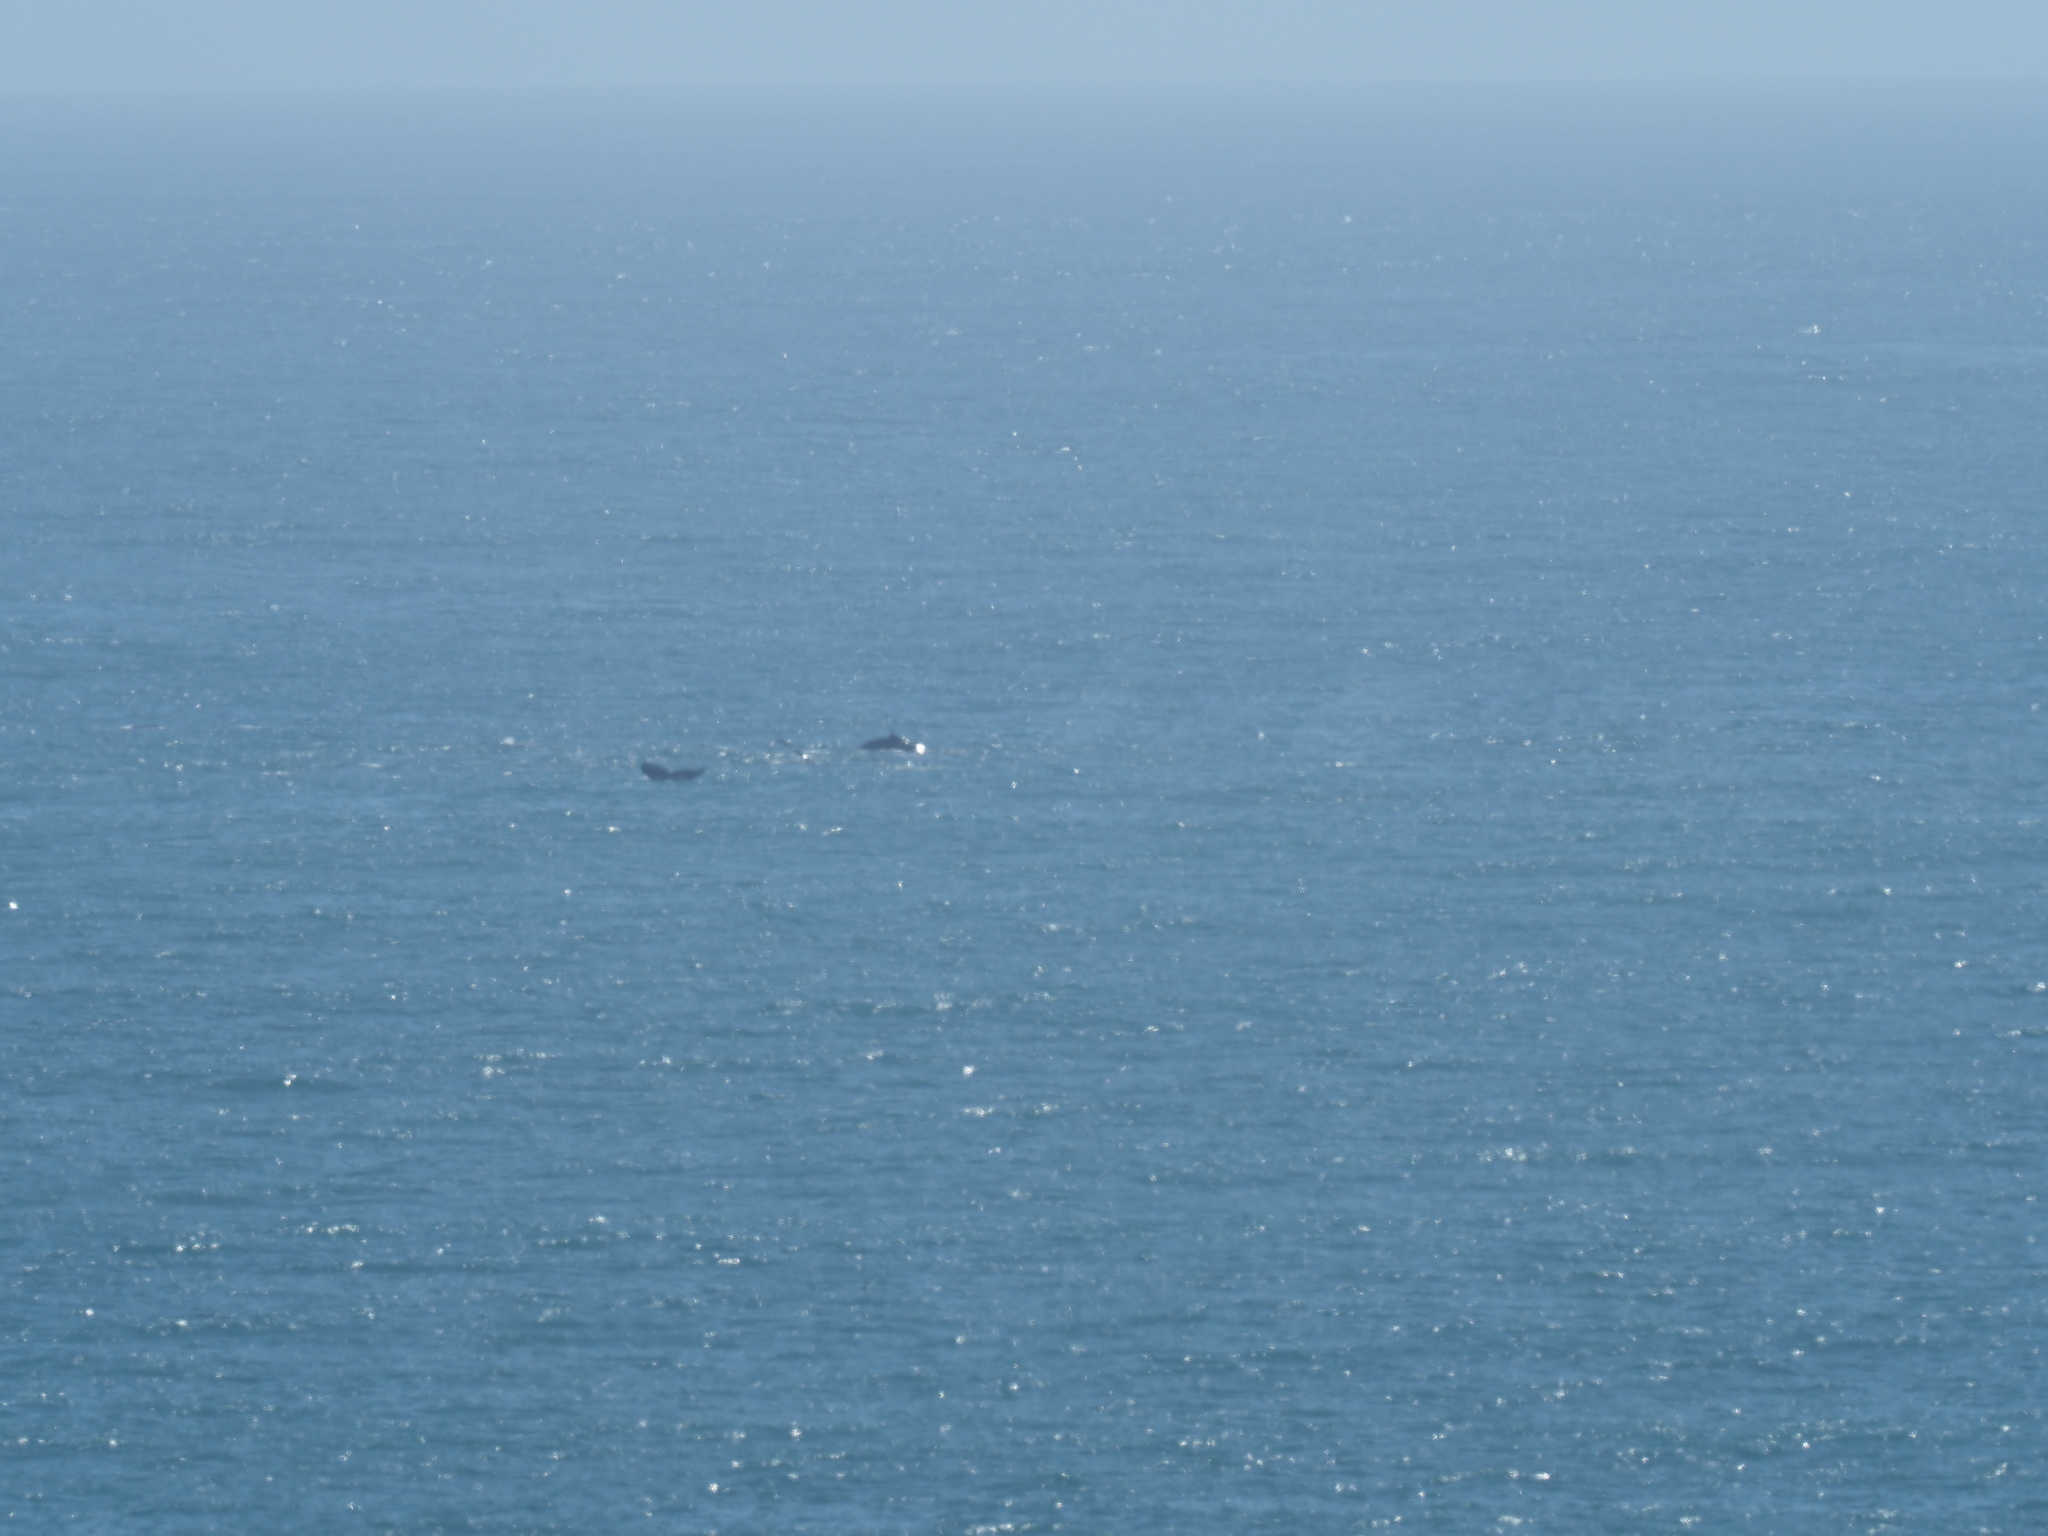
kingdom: Animalia
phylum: Chordata
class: Mammalia
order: Cetacea
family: Balaenopteridae
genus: Megaptera
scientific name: Megaptera novaeangliae
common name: Humpback whale
